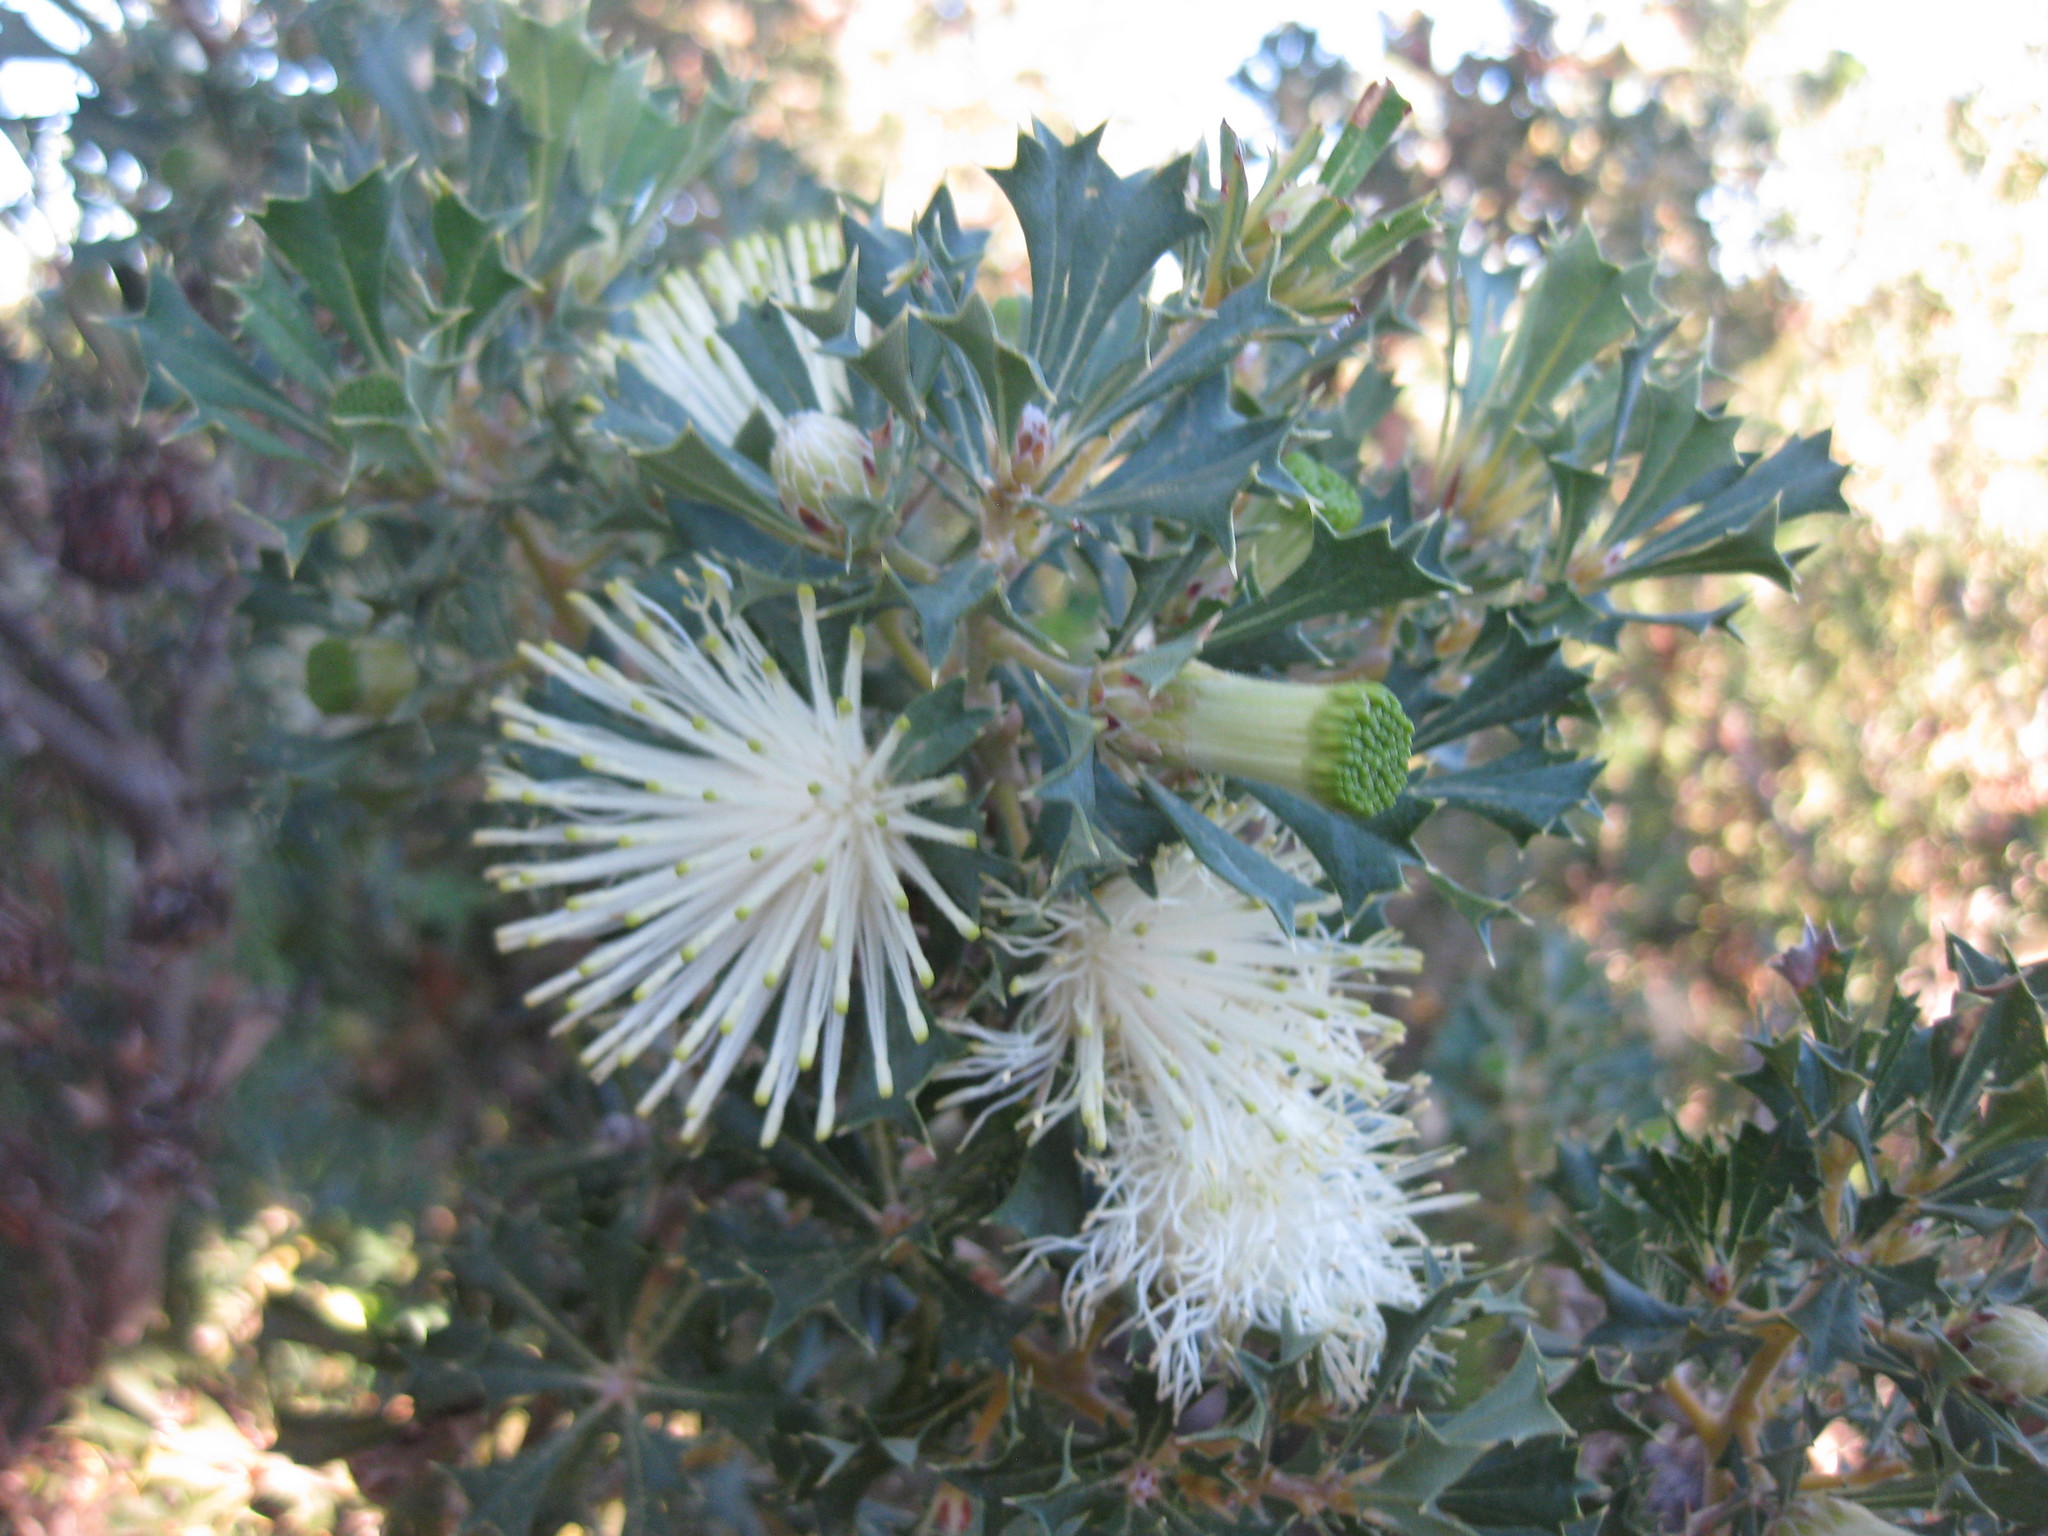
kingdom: Plantae
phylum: Tracheophyta
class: Magnoliopsida
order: Proteales
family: Proteaceae
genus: Banksia
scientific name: Banksia sessilis
